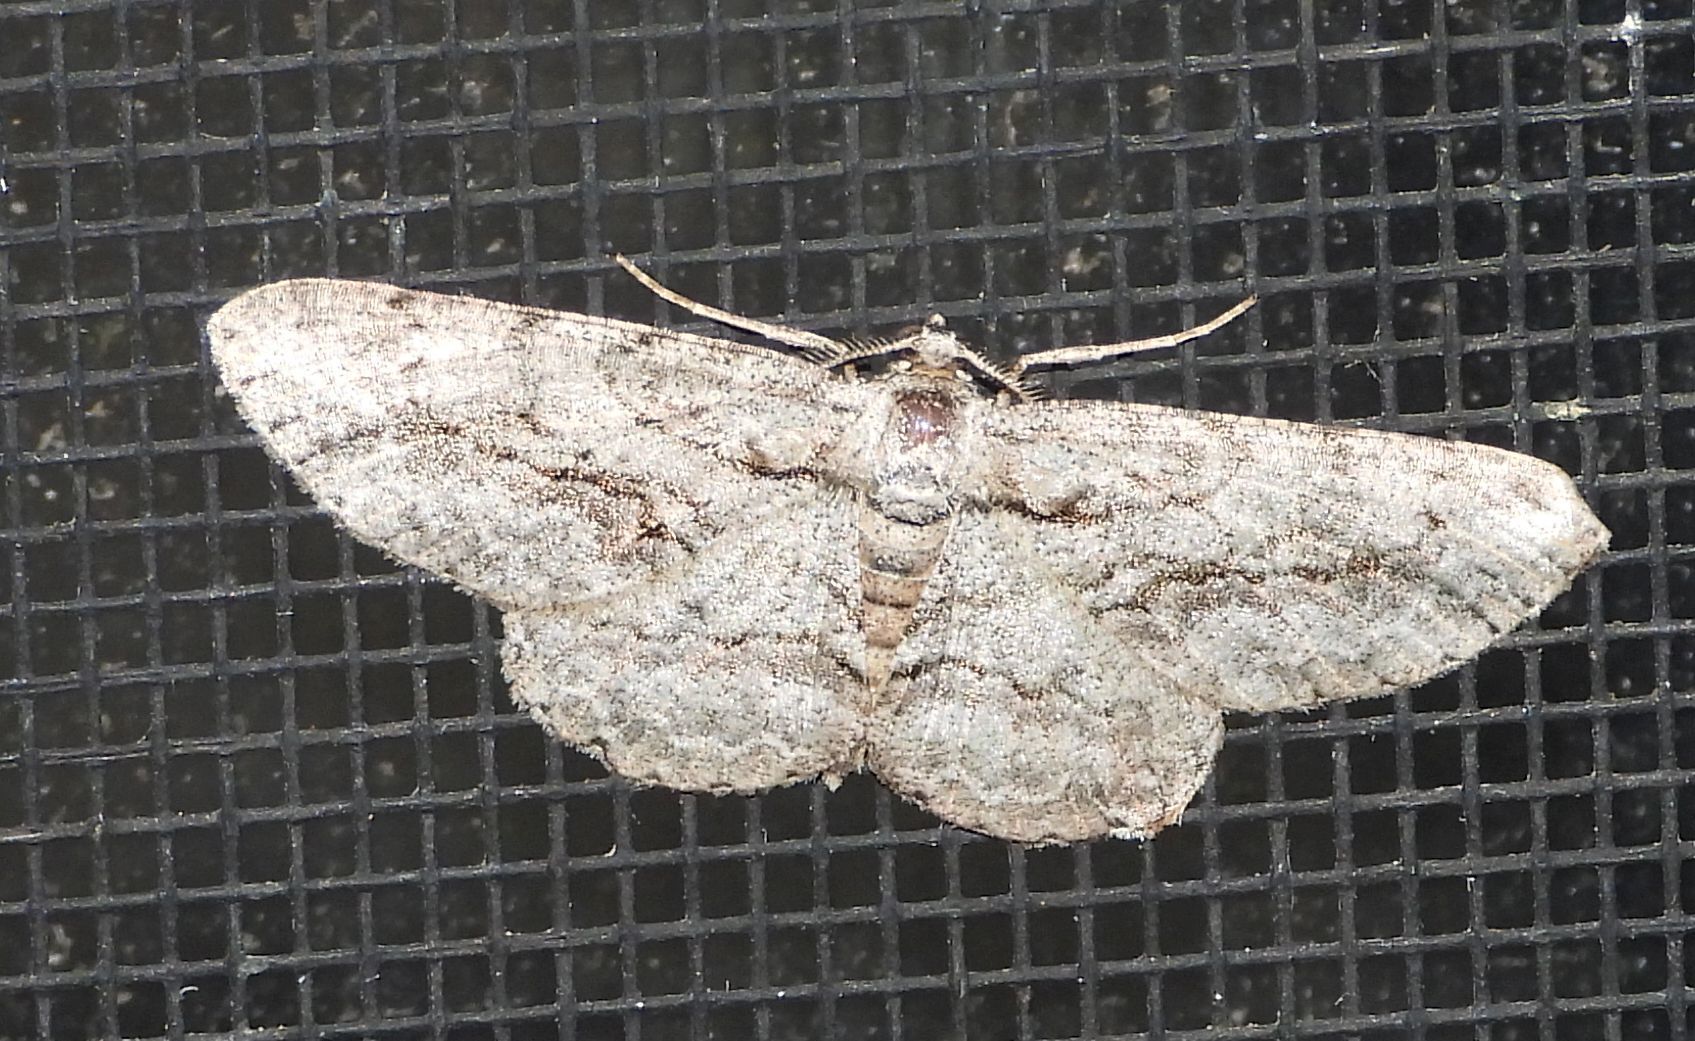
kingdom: Animalia
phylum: Arthropoda
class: Insecta
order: Lepidoptera
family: Geometridae
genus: Anavitrinella
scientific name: Anavitrinella pampinaria
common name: Common gray
